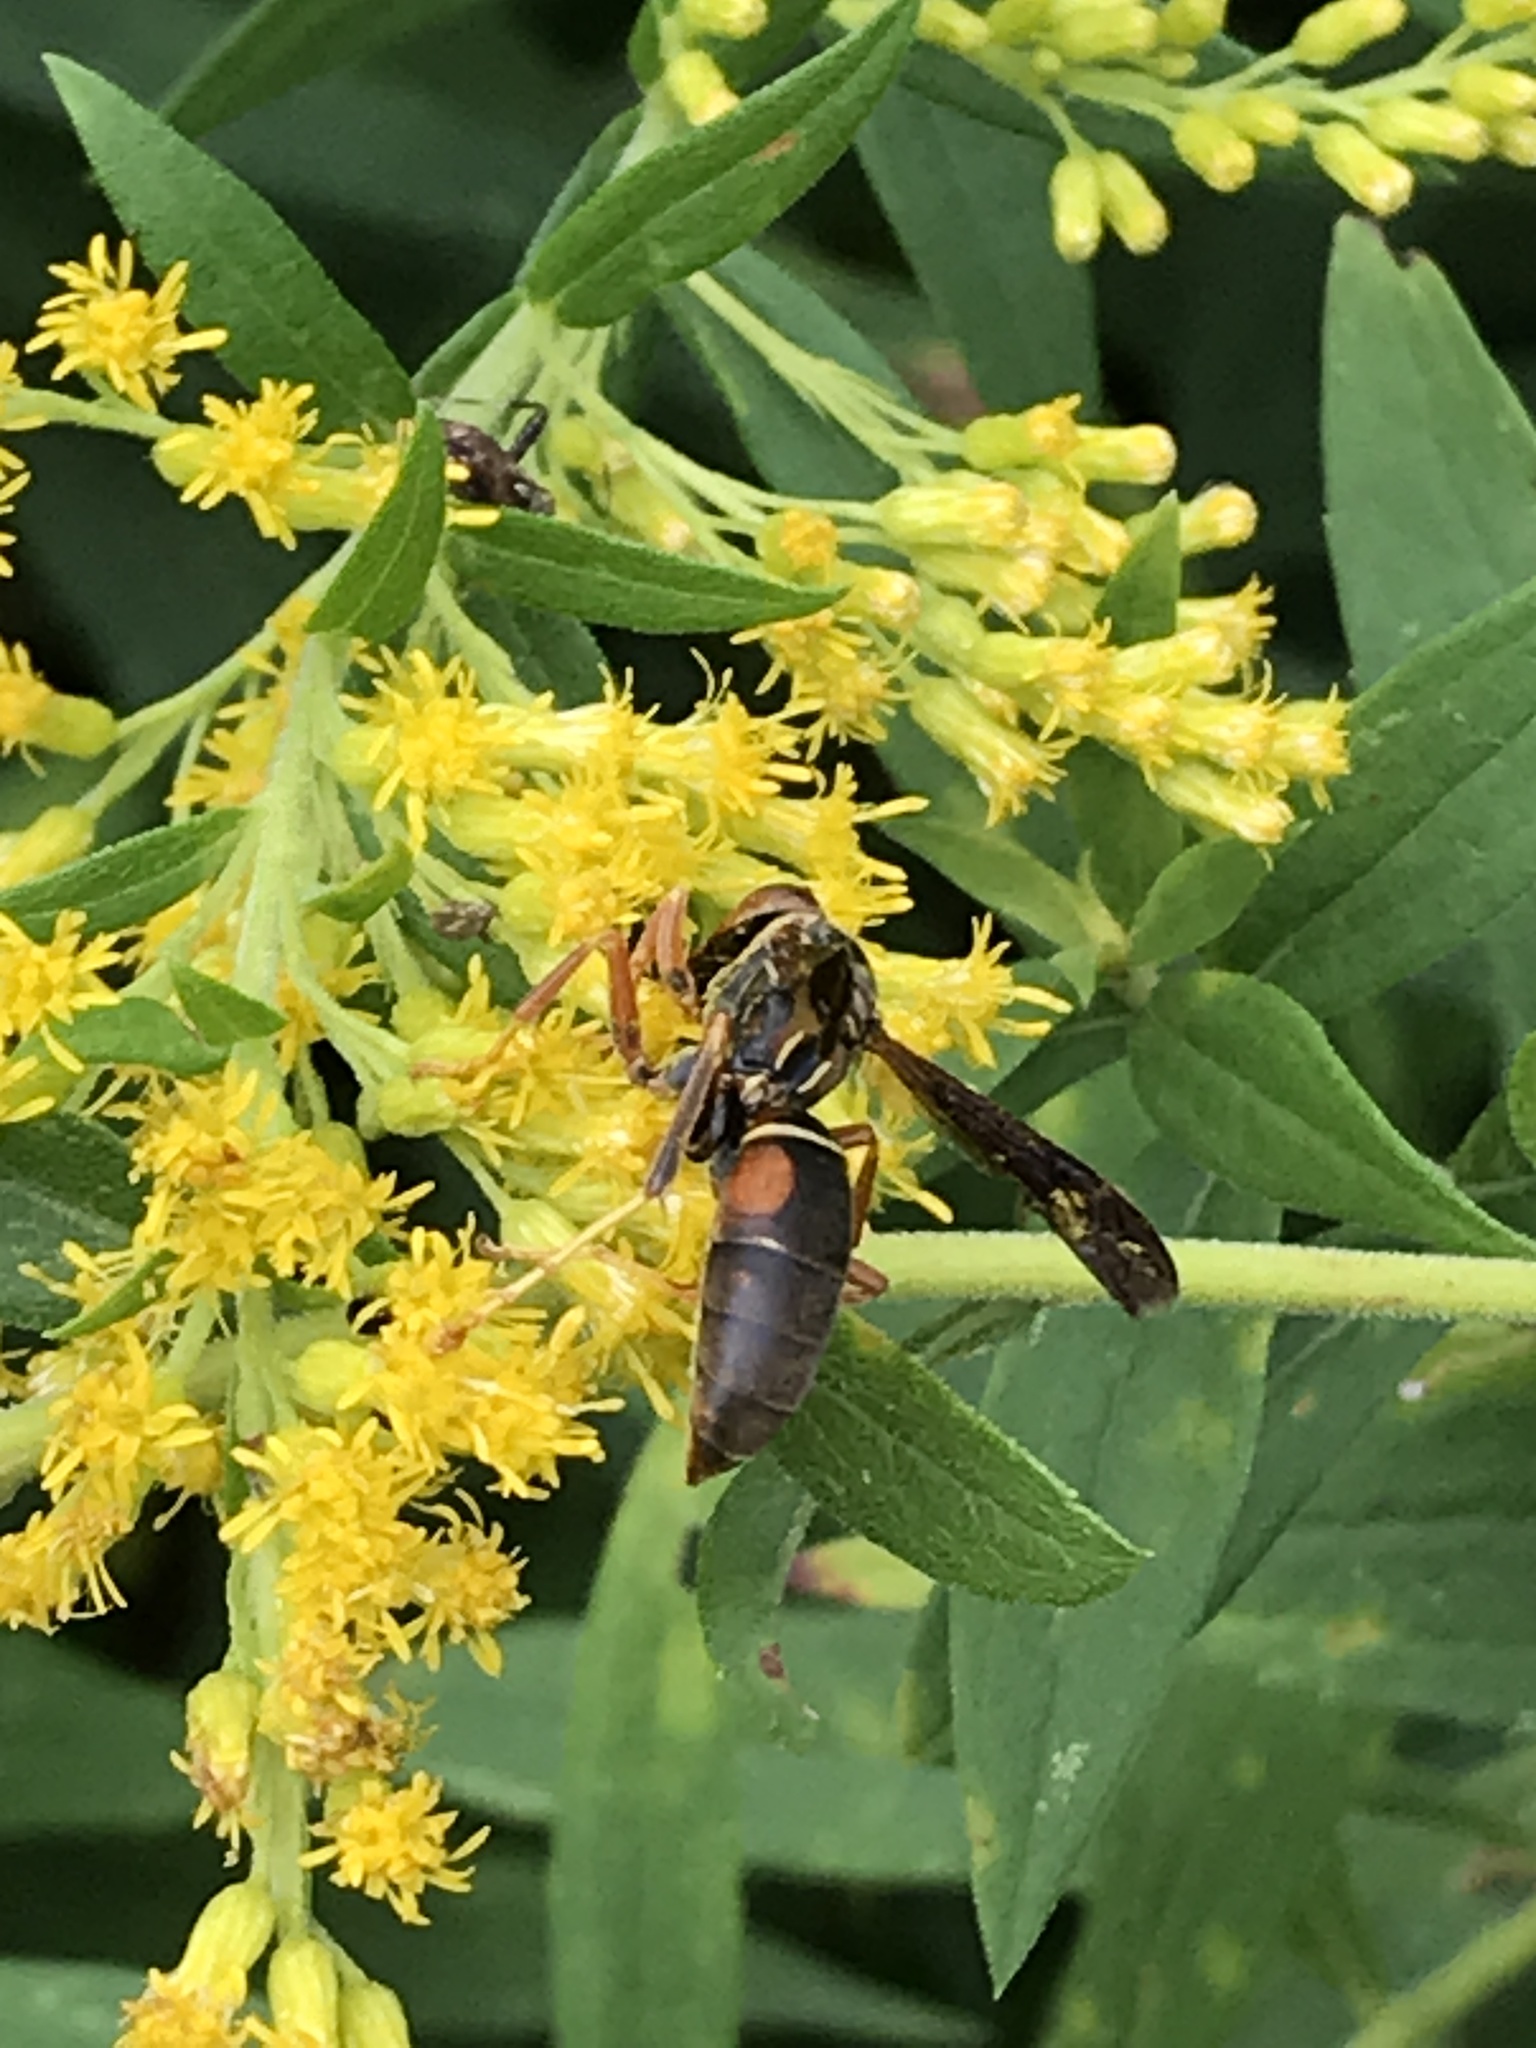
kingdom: Animalia
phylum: Arthropoda
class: Insecta
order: Hymenoptera
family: Eumenidae
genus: Polistes
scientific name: Polistes fuscatus
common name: Dark paper wasp
